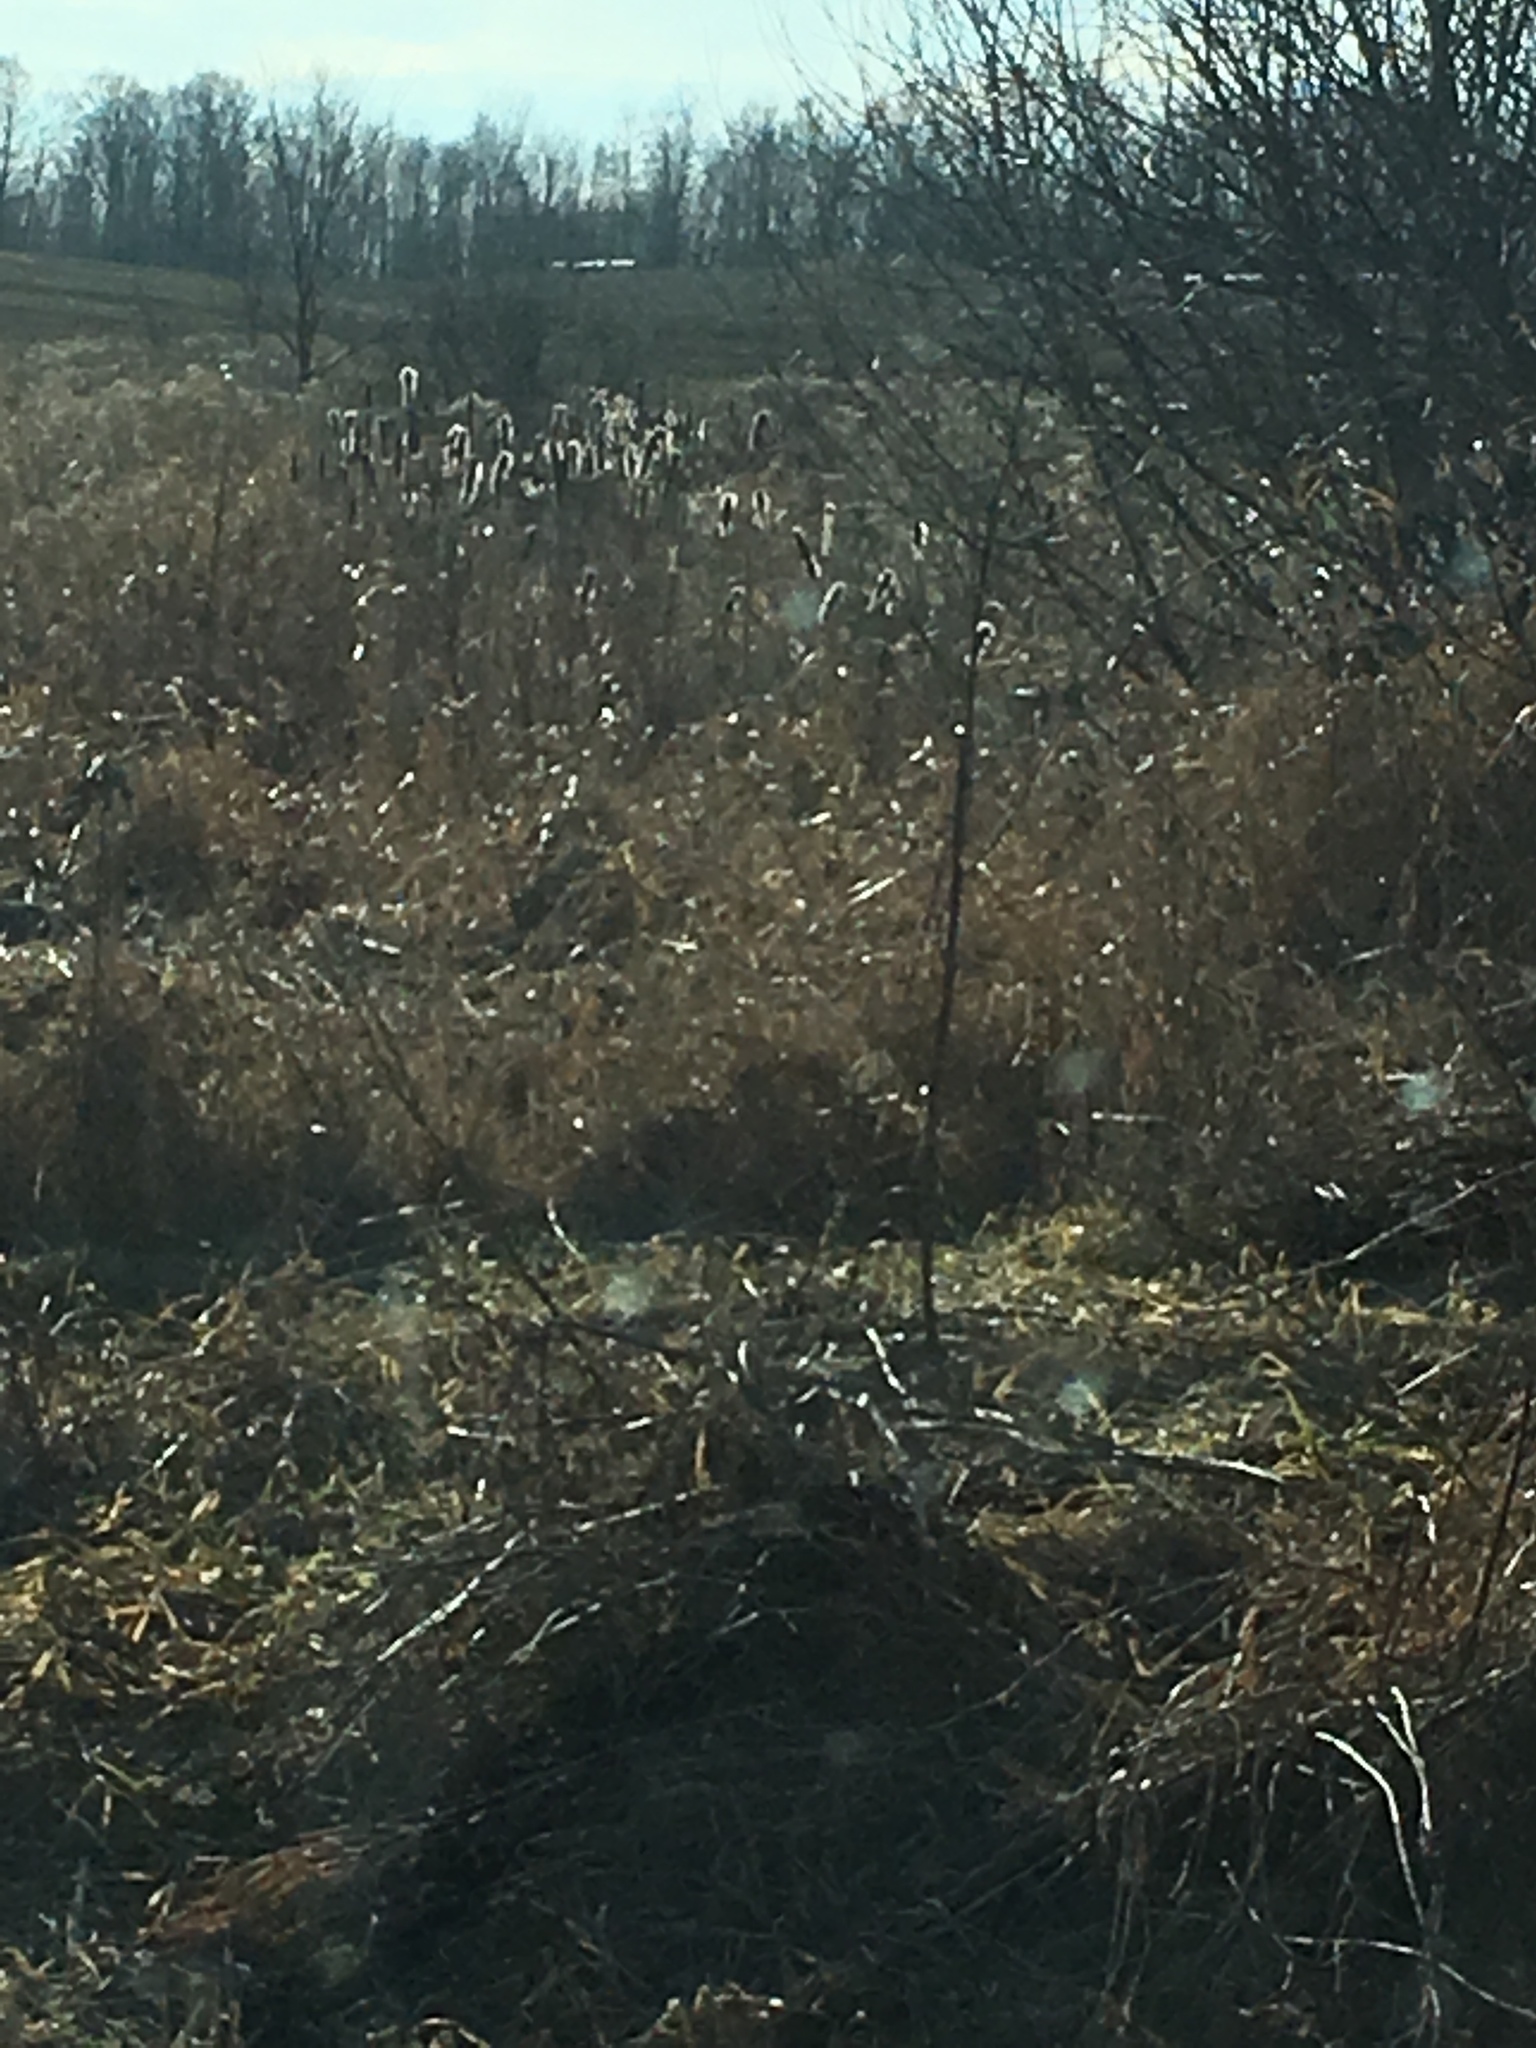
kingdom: Plantae
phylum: Tracheophyta
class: Liliopsida
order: Poales
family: Typhaceae
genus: Typha
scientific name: Typha
